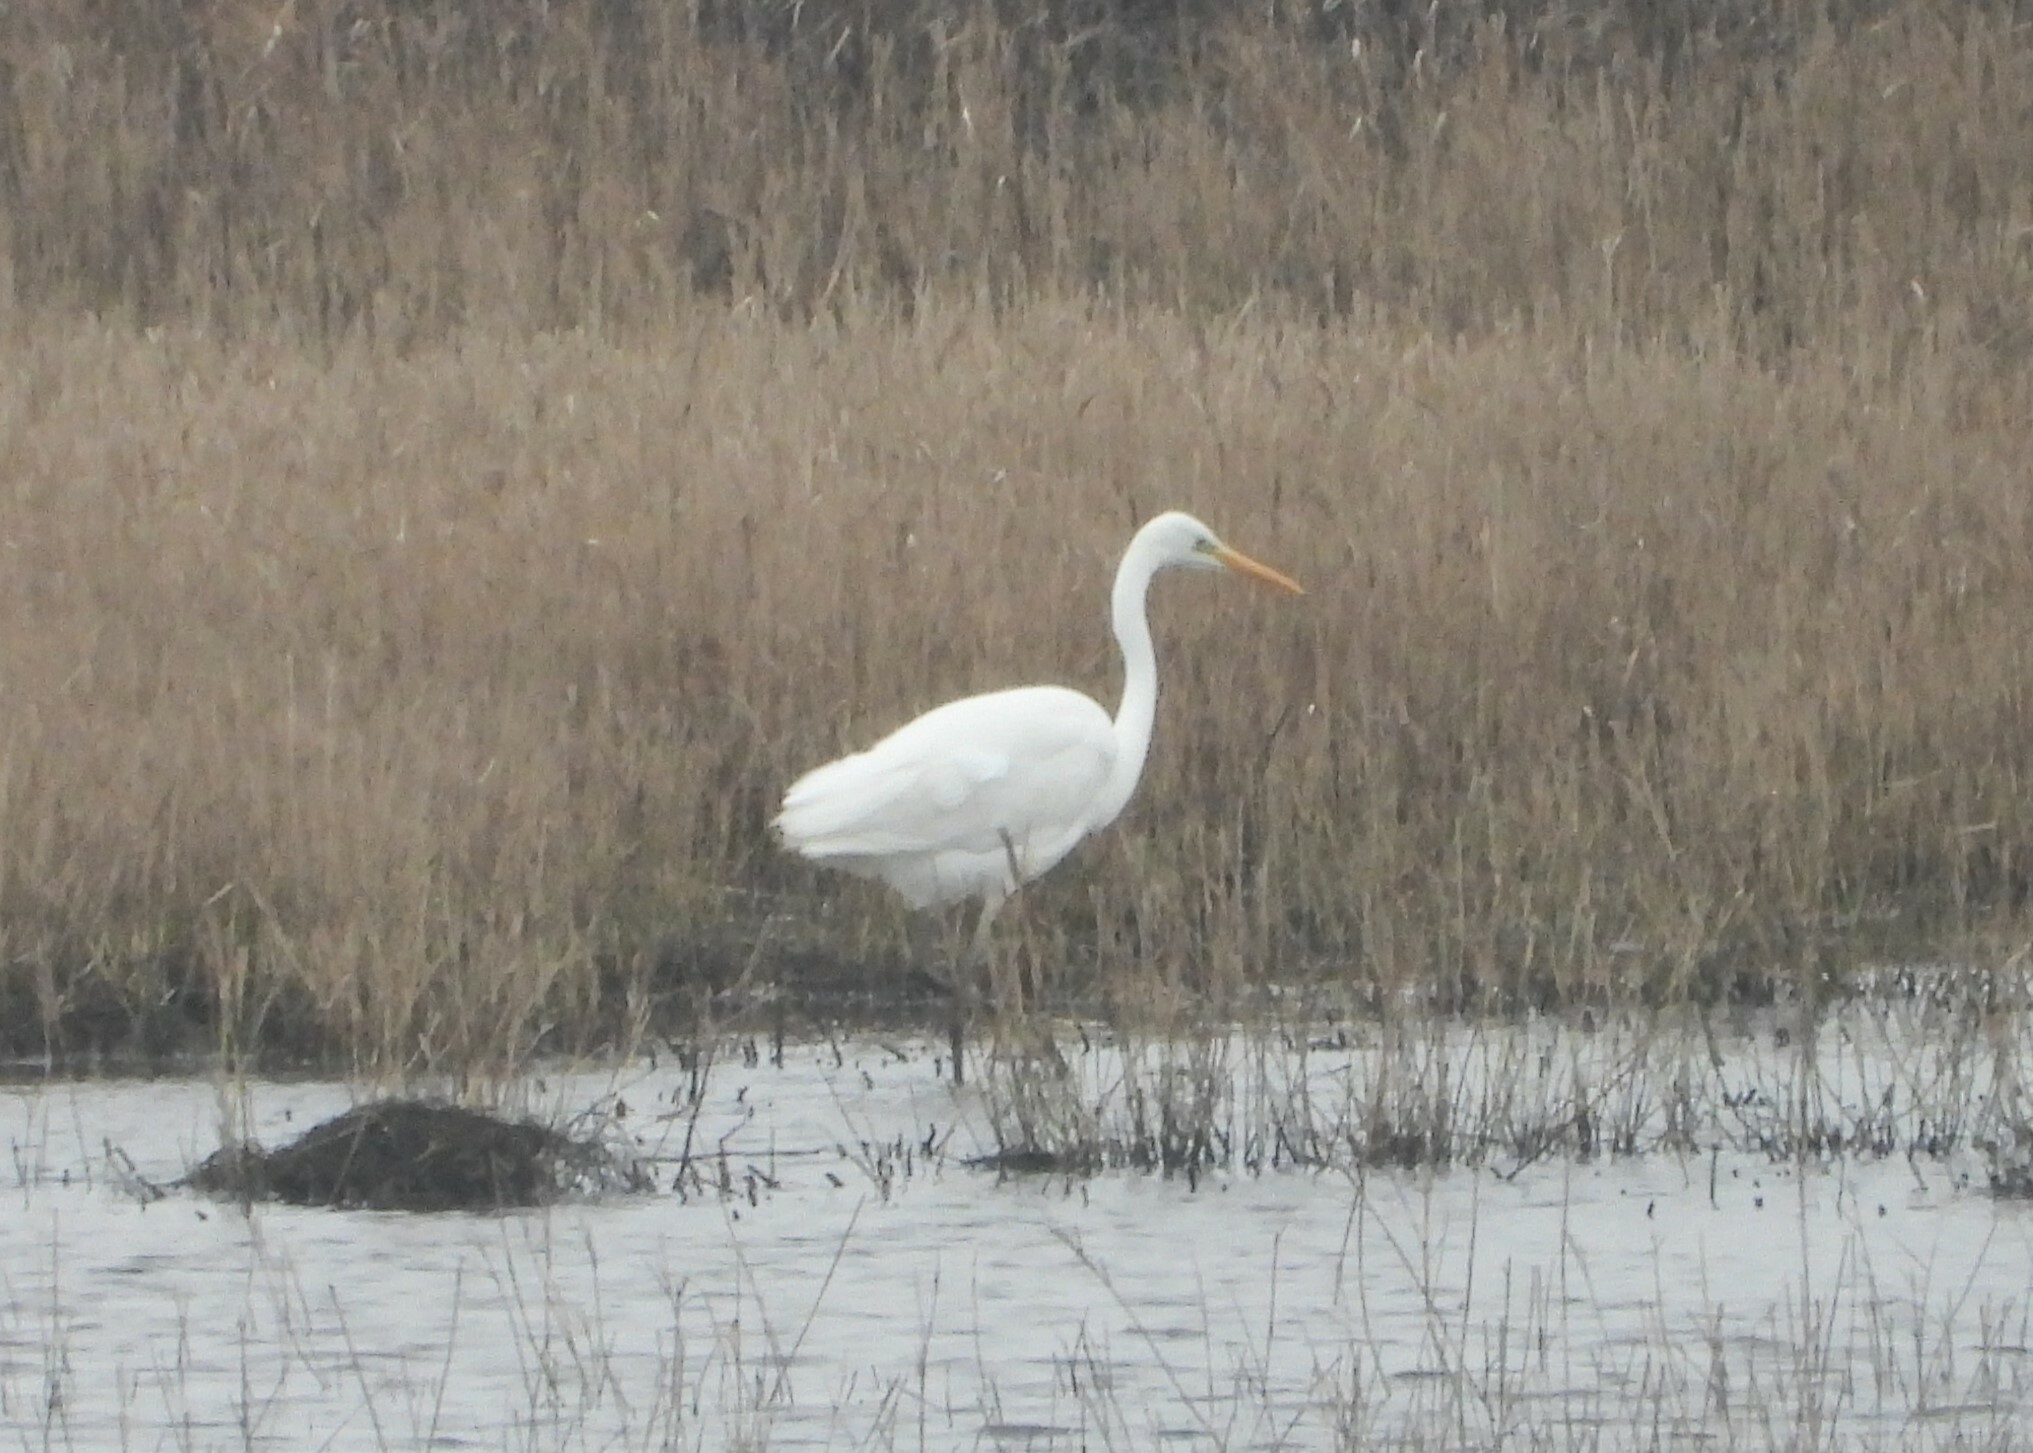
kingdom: Animalia
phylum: Chordata
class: Aves
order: Pelecaniformes
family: Ardeidae
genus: Ardea
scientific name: Ardea alba
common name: Great egret
